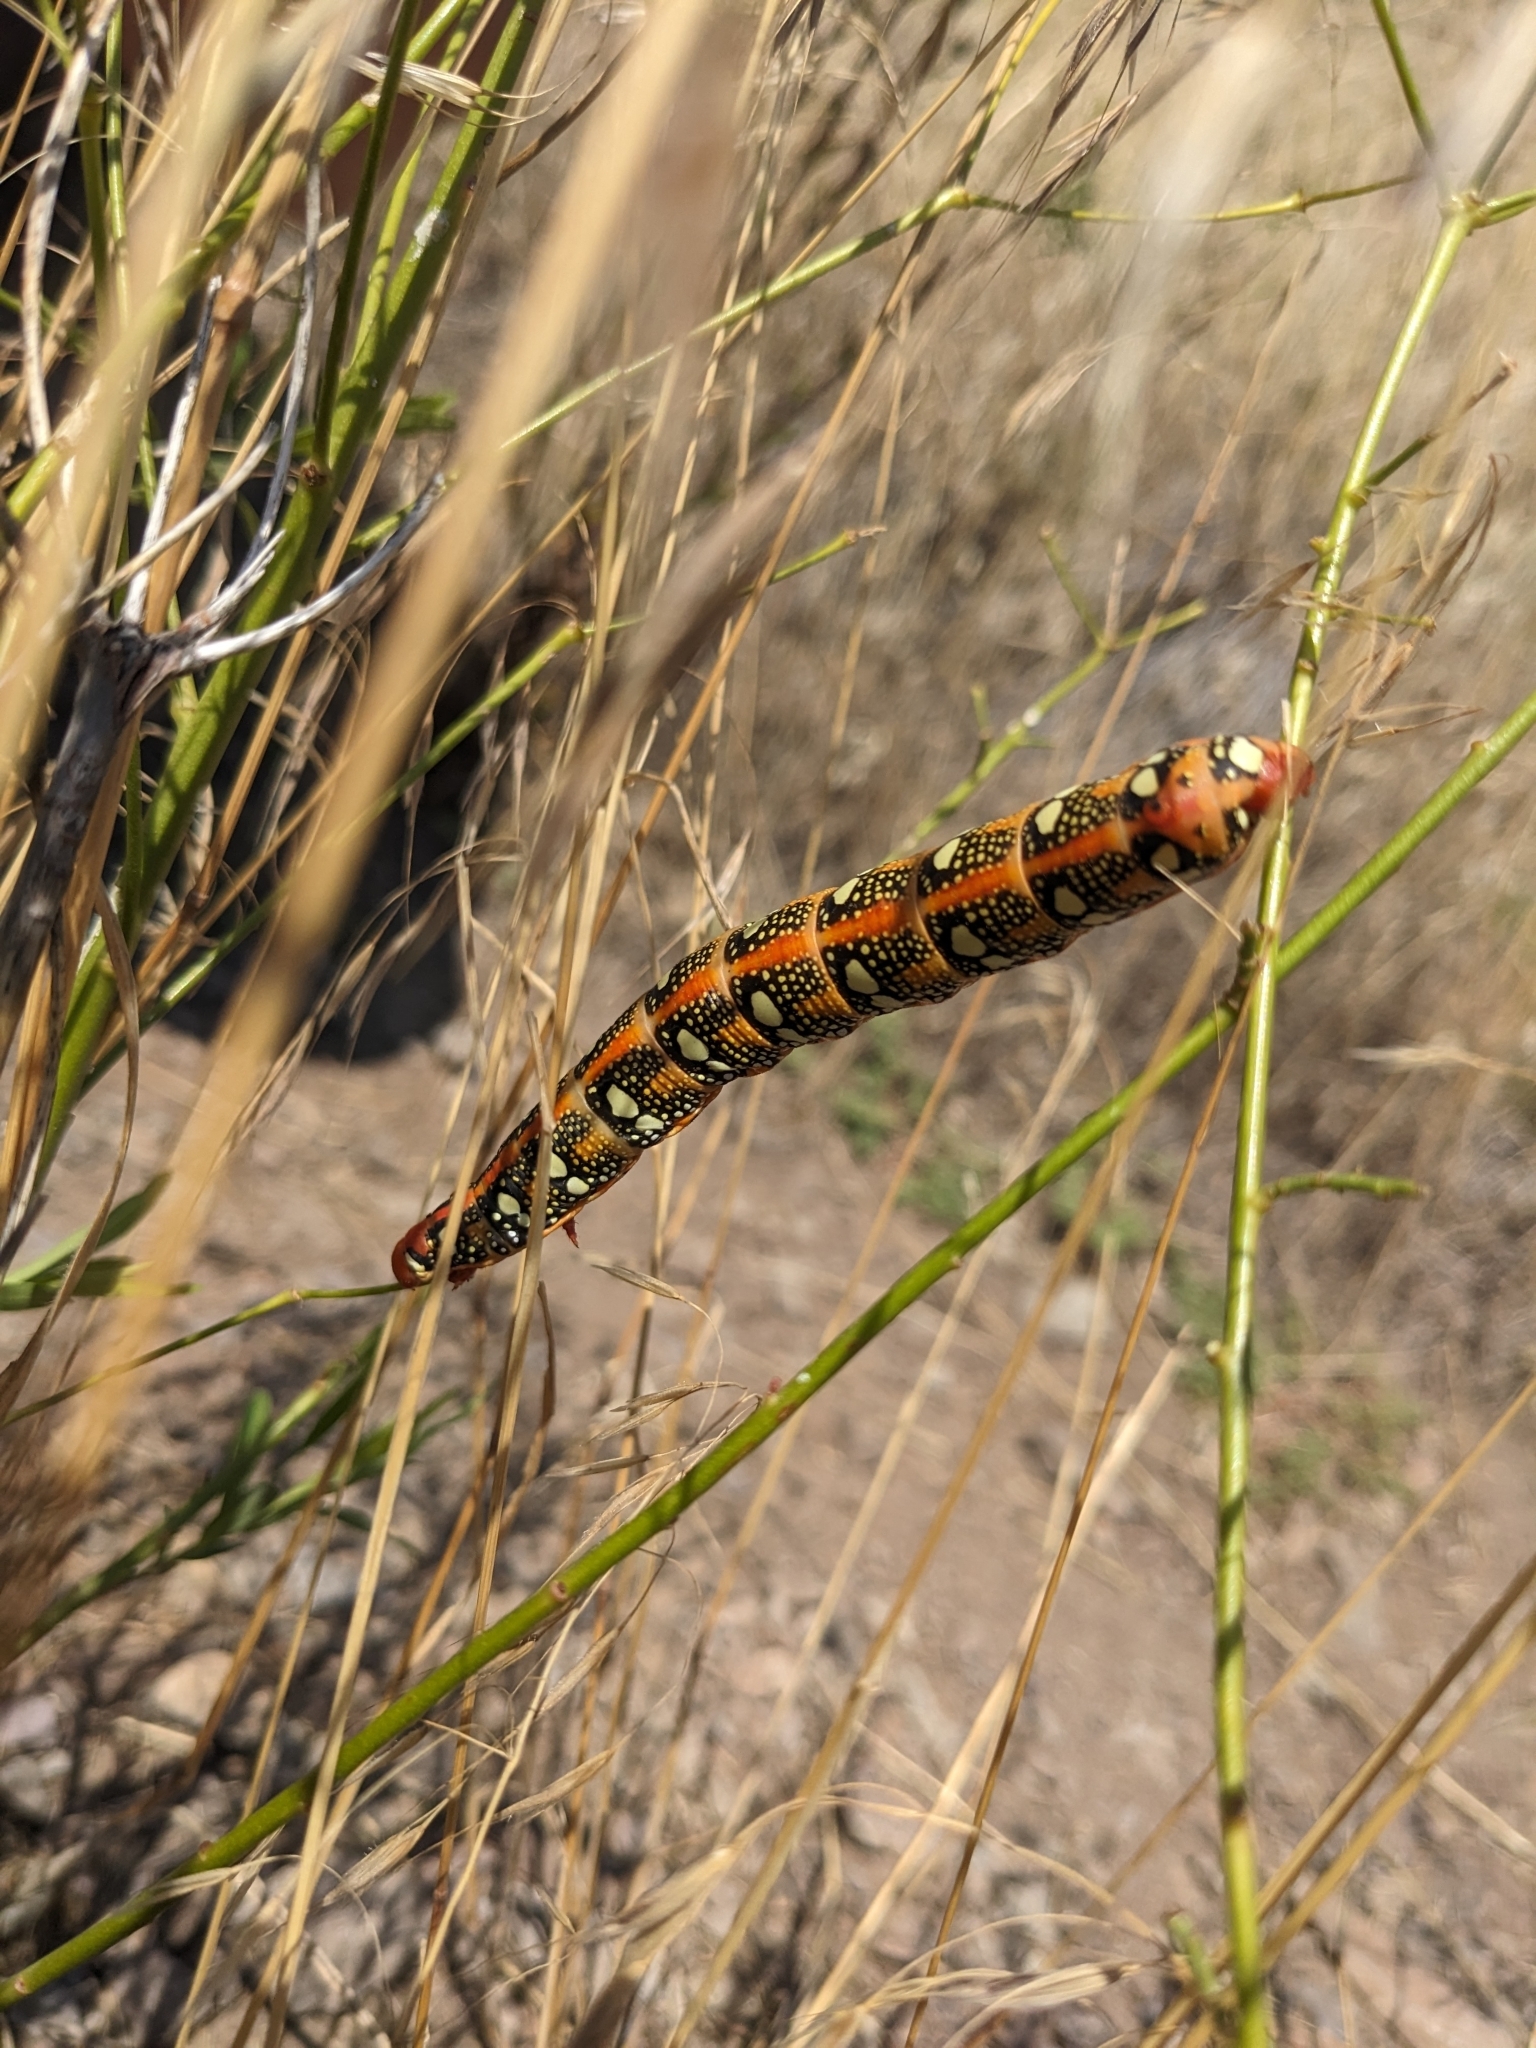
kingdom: Animalia
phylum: Arthropoda
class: Insecta
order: Lepidoptera
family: Sphingidae
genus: Hyles
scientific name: Hyles euphorbiae
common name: Spurge hawk-moth
